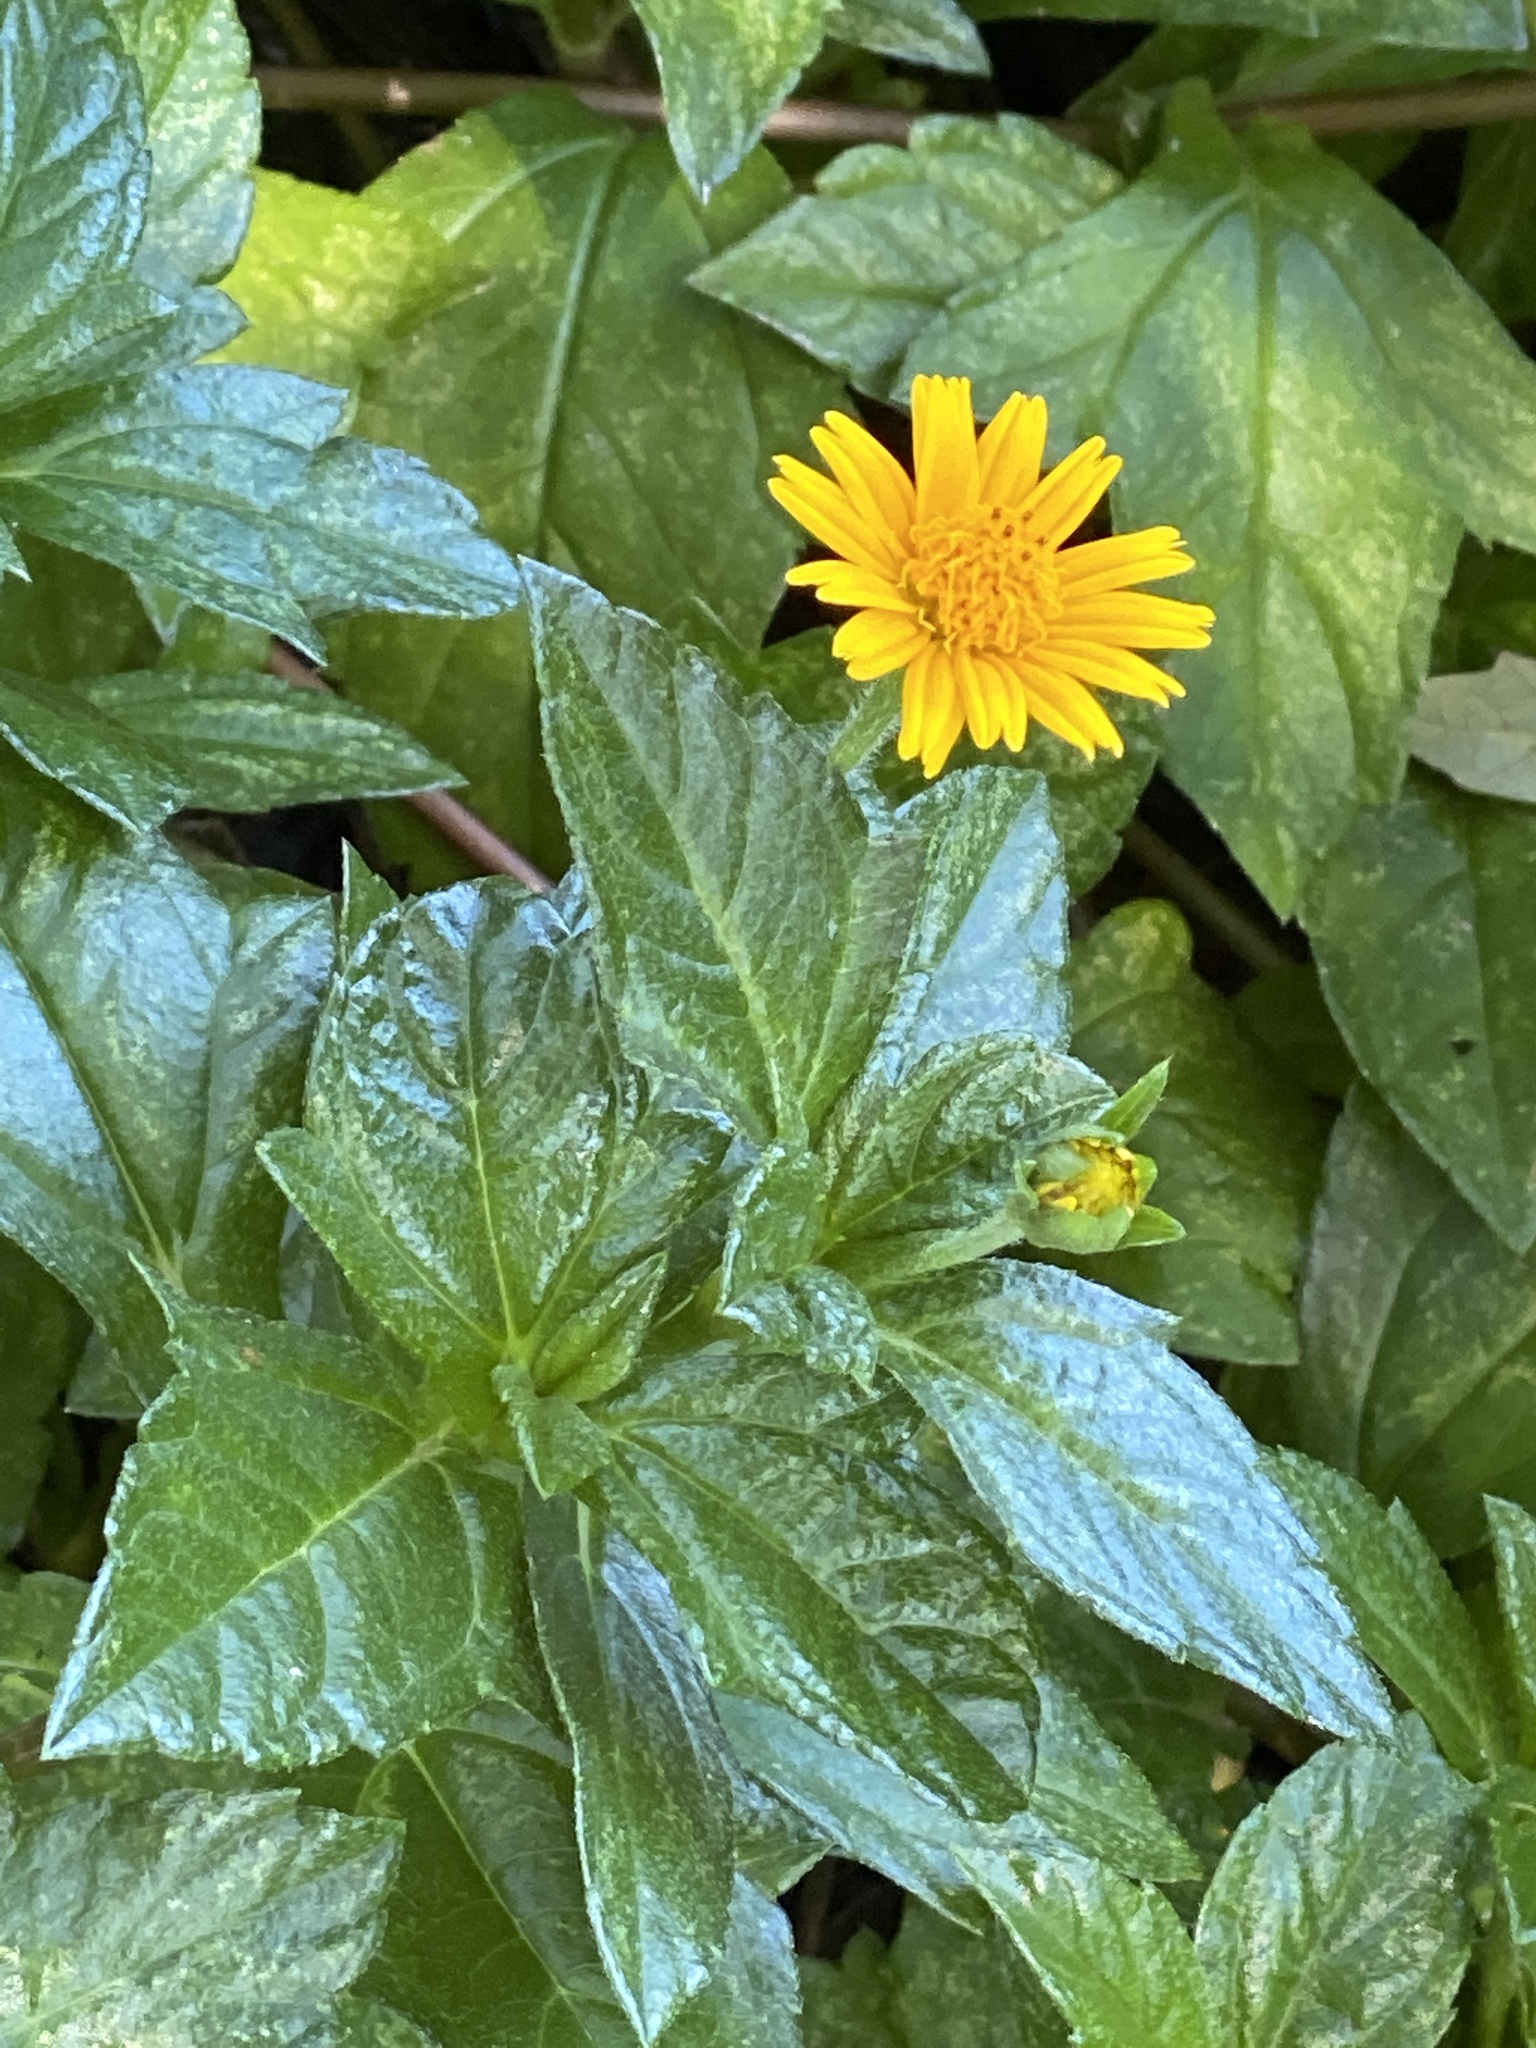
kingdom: Plantae
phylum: Tracheophyta
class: Magnoliopsida
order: Asterales
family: Asteraceae
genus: Sphagneticola
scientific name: Sphagneticola trilobata
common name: Bay biscayne creeping-oxeye
